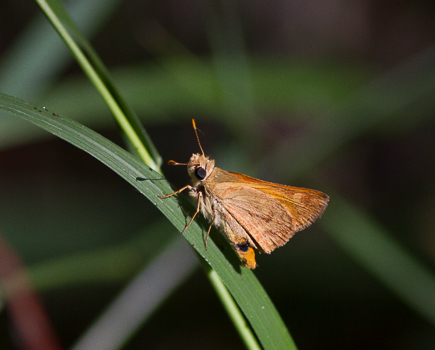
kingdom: Animalia
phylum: Arthropoda
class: Insecta
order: Lepidoptera
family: Hesperiidae
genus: Ochlodes
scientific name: Ochlodes sylvanoides
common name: Woodland skipper
